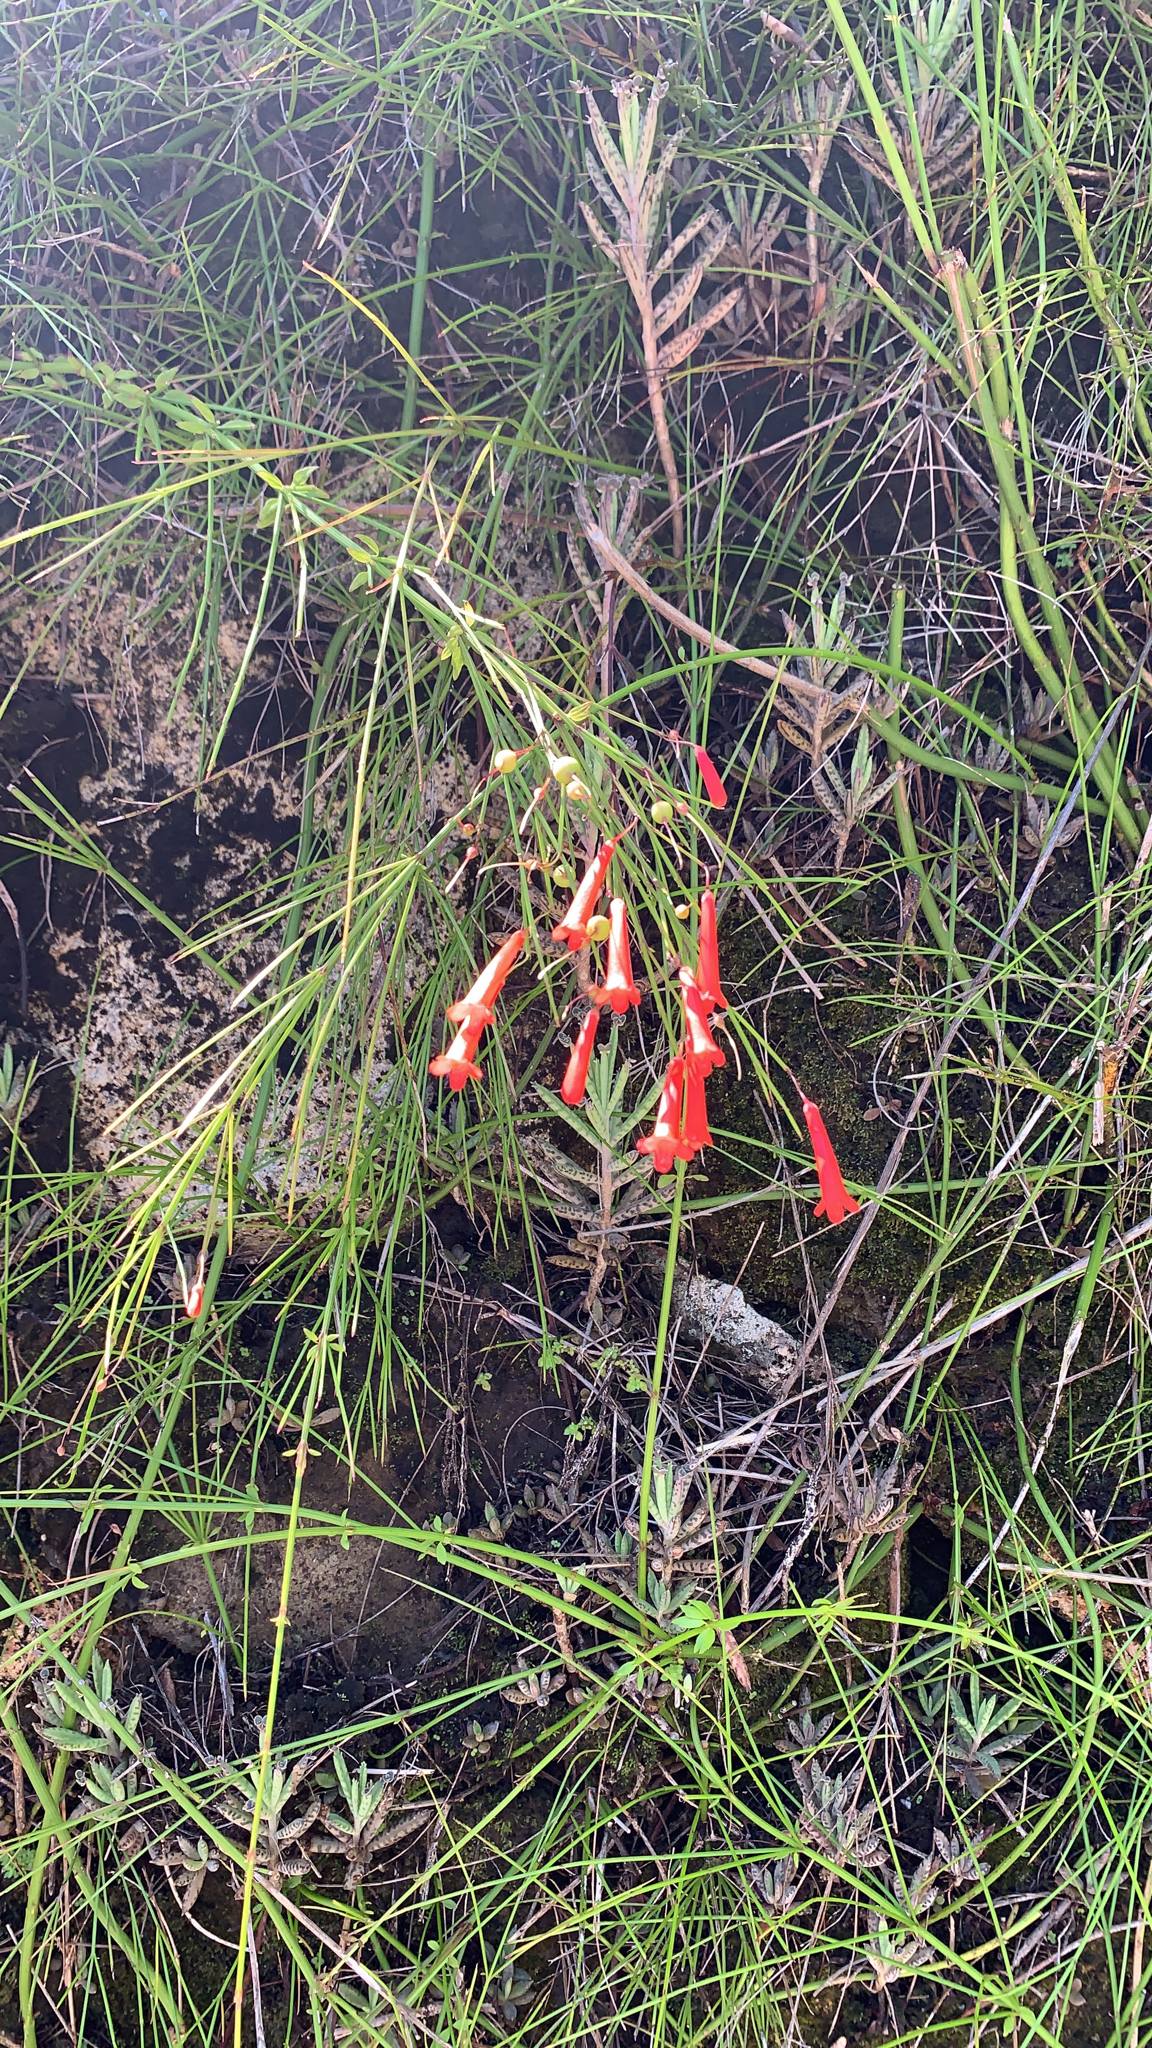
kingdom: Plantae
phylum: Tracheophyta
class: Magnoliopsida
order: Lamiales
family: Plantaginaceae
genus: Russelia
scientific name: Russelia equisetiformis
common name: Fountainbush
